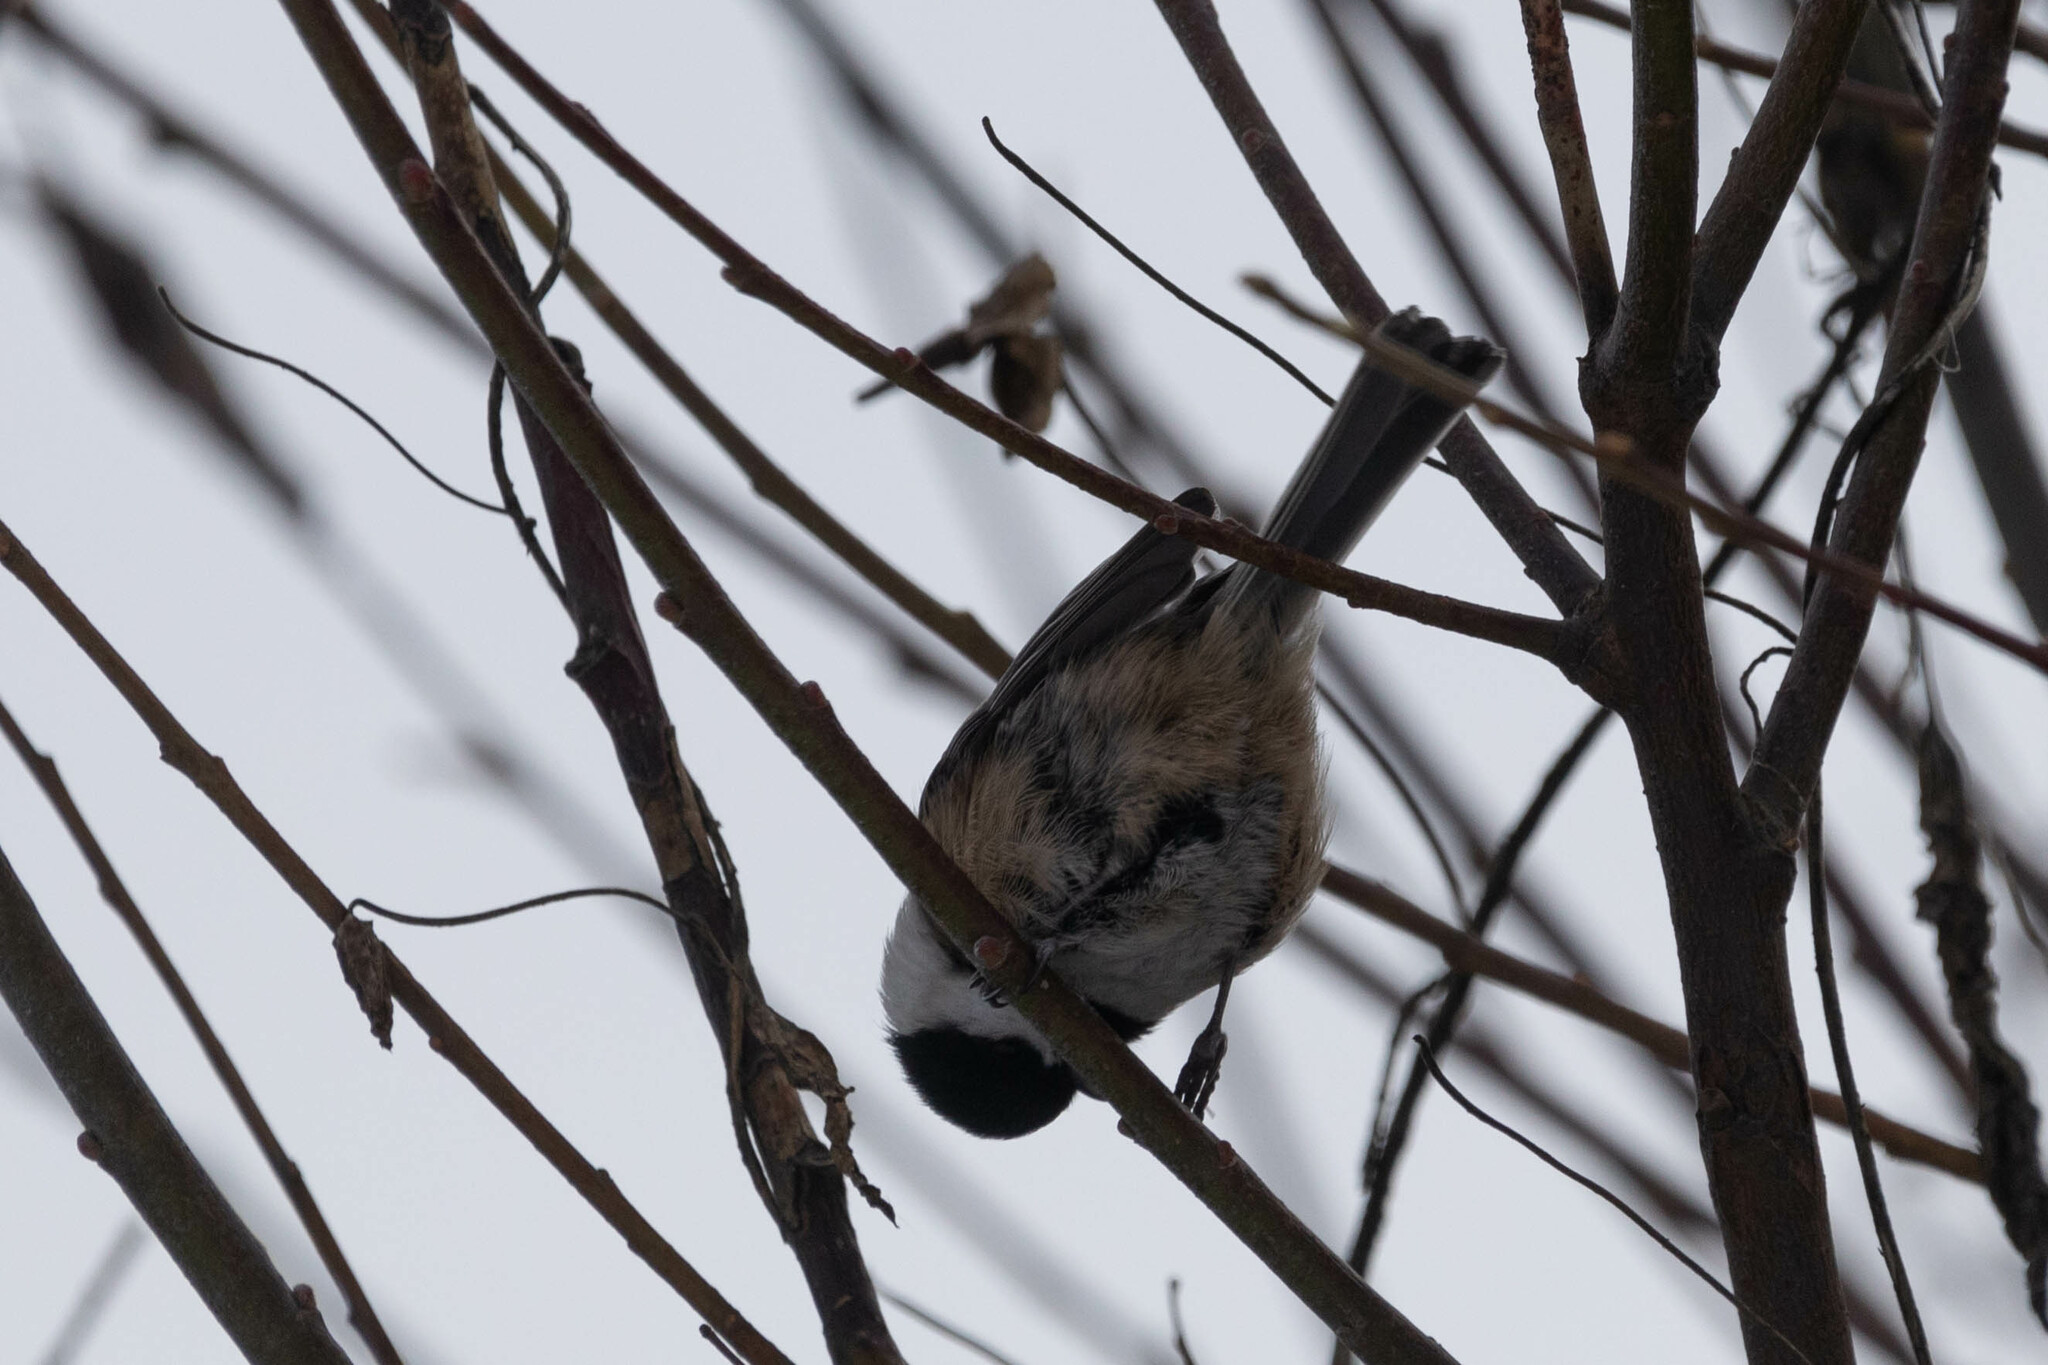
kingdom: Animalia
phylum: Chordata
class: Aves
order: Passeriformes
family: Paridae
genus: Poecile
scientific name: Poecile atricapillus
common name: Black-capped chickadee
